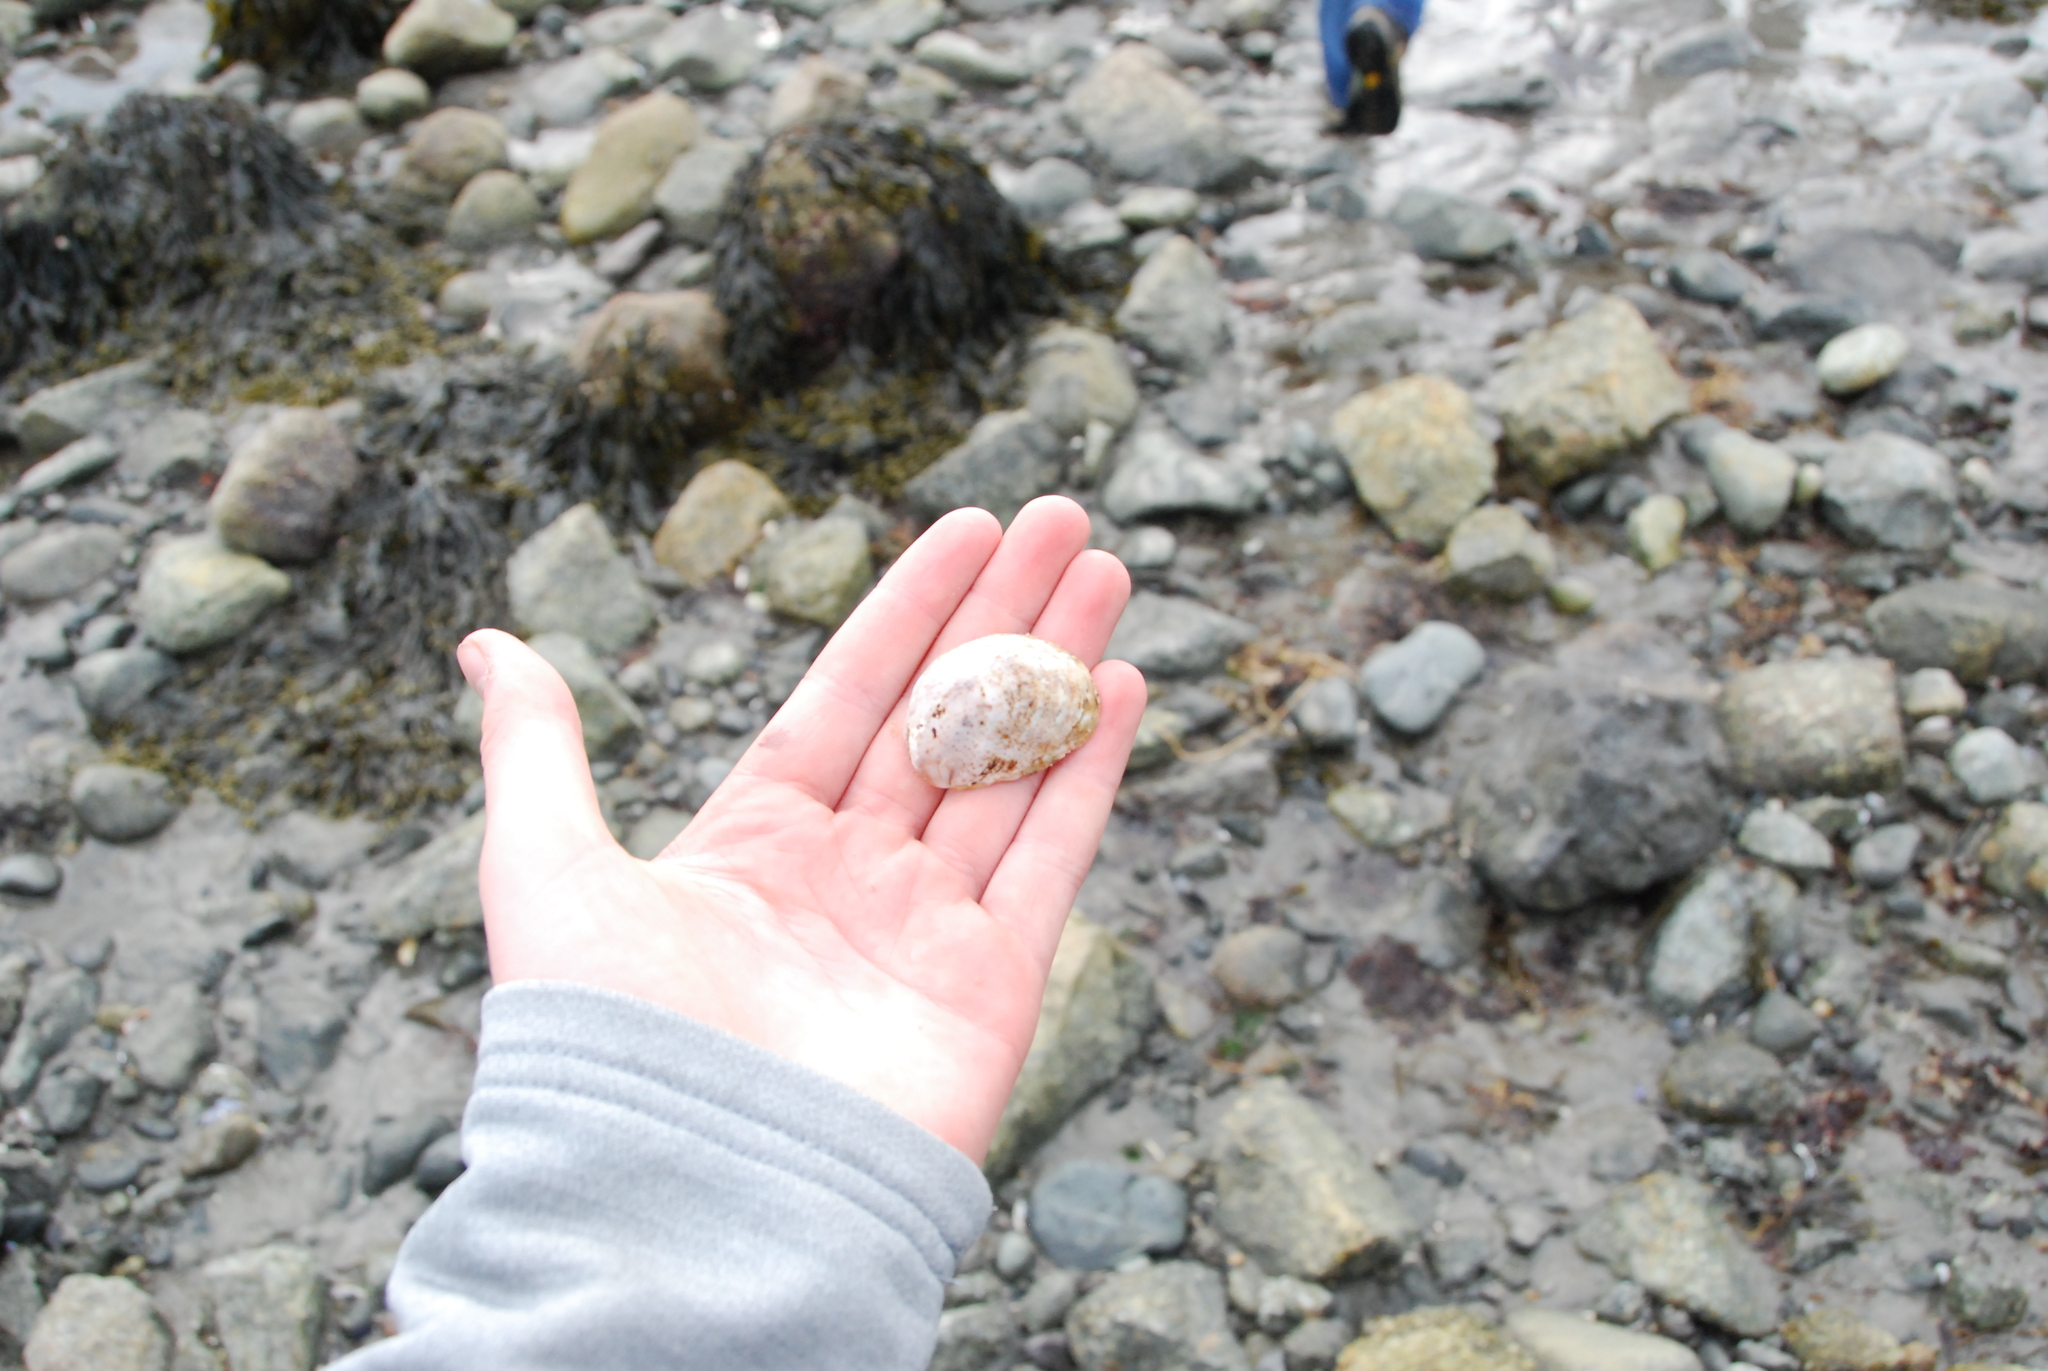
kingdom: Animalia
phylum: Mollusca
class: Gastropoda
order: Littorinimorpha
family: Calyptraeidae
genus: Crepidula
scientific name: Crepidula fornicata
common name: Slipper limpet
